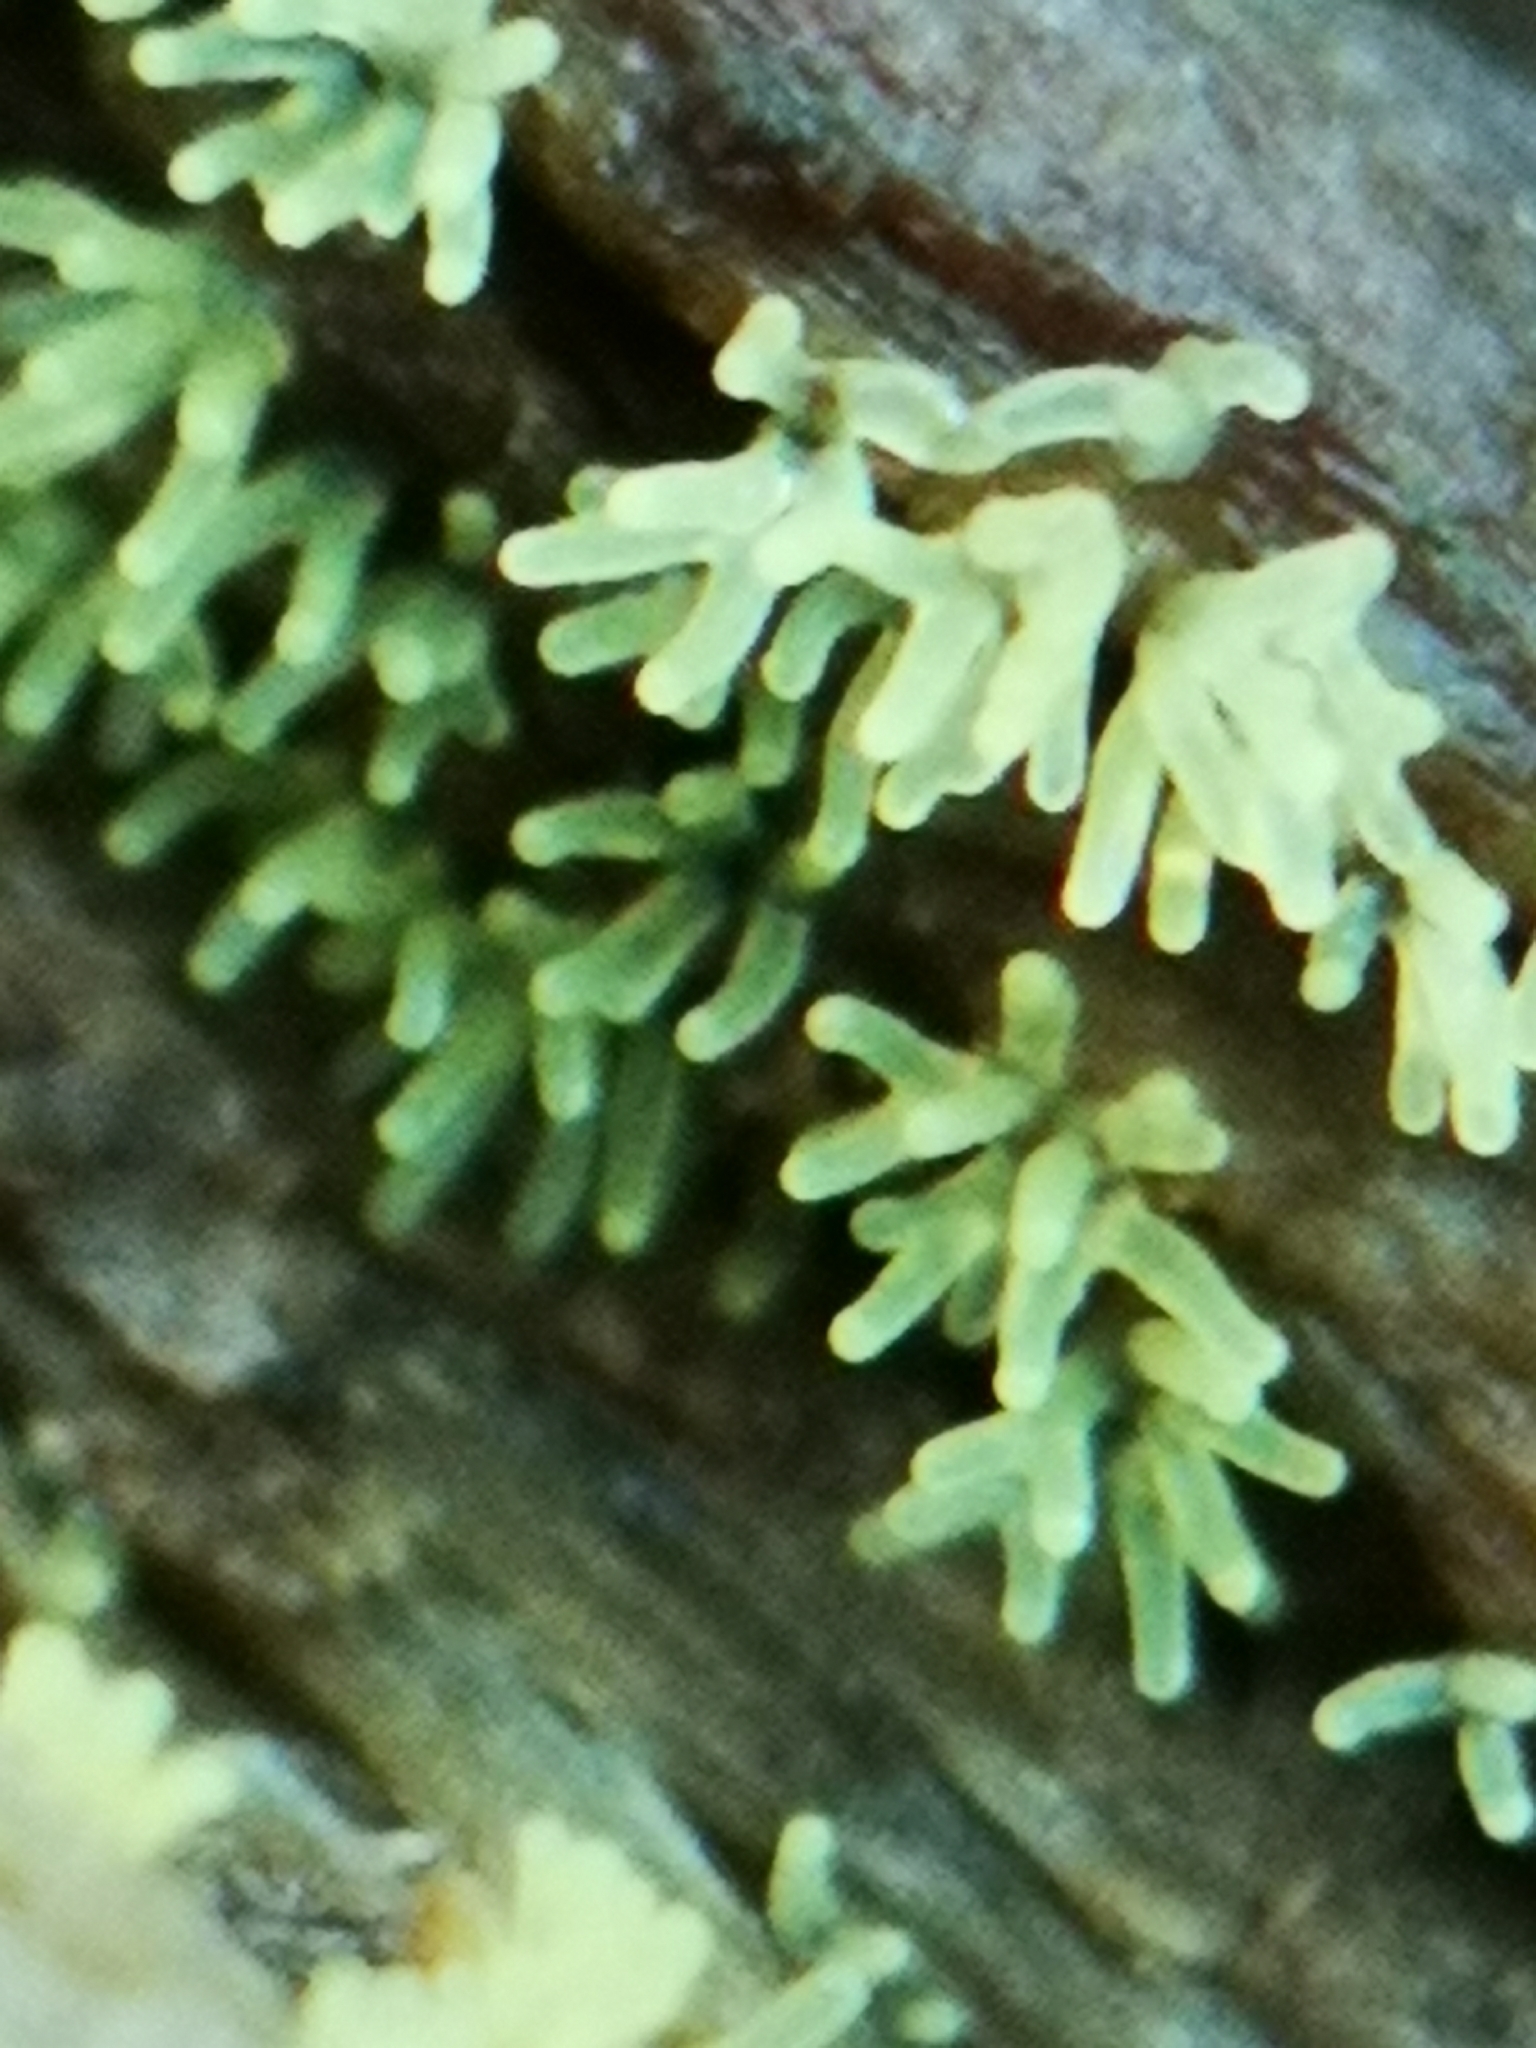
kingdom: Protozoa
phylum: Mycetozoa
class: Protosteliomycetes
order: Ceratiomyxales
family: Ceratiomyxaceae
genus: Ceratiomyxa
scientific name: Ceratiomyxa fruticulosa
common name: Honeycomb coral slime mold
